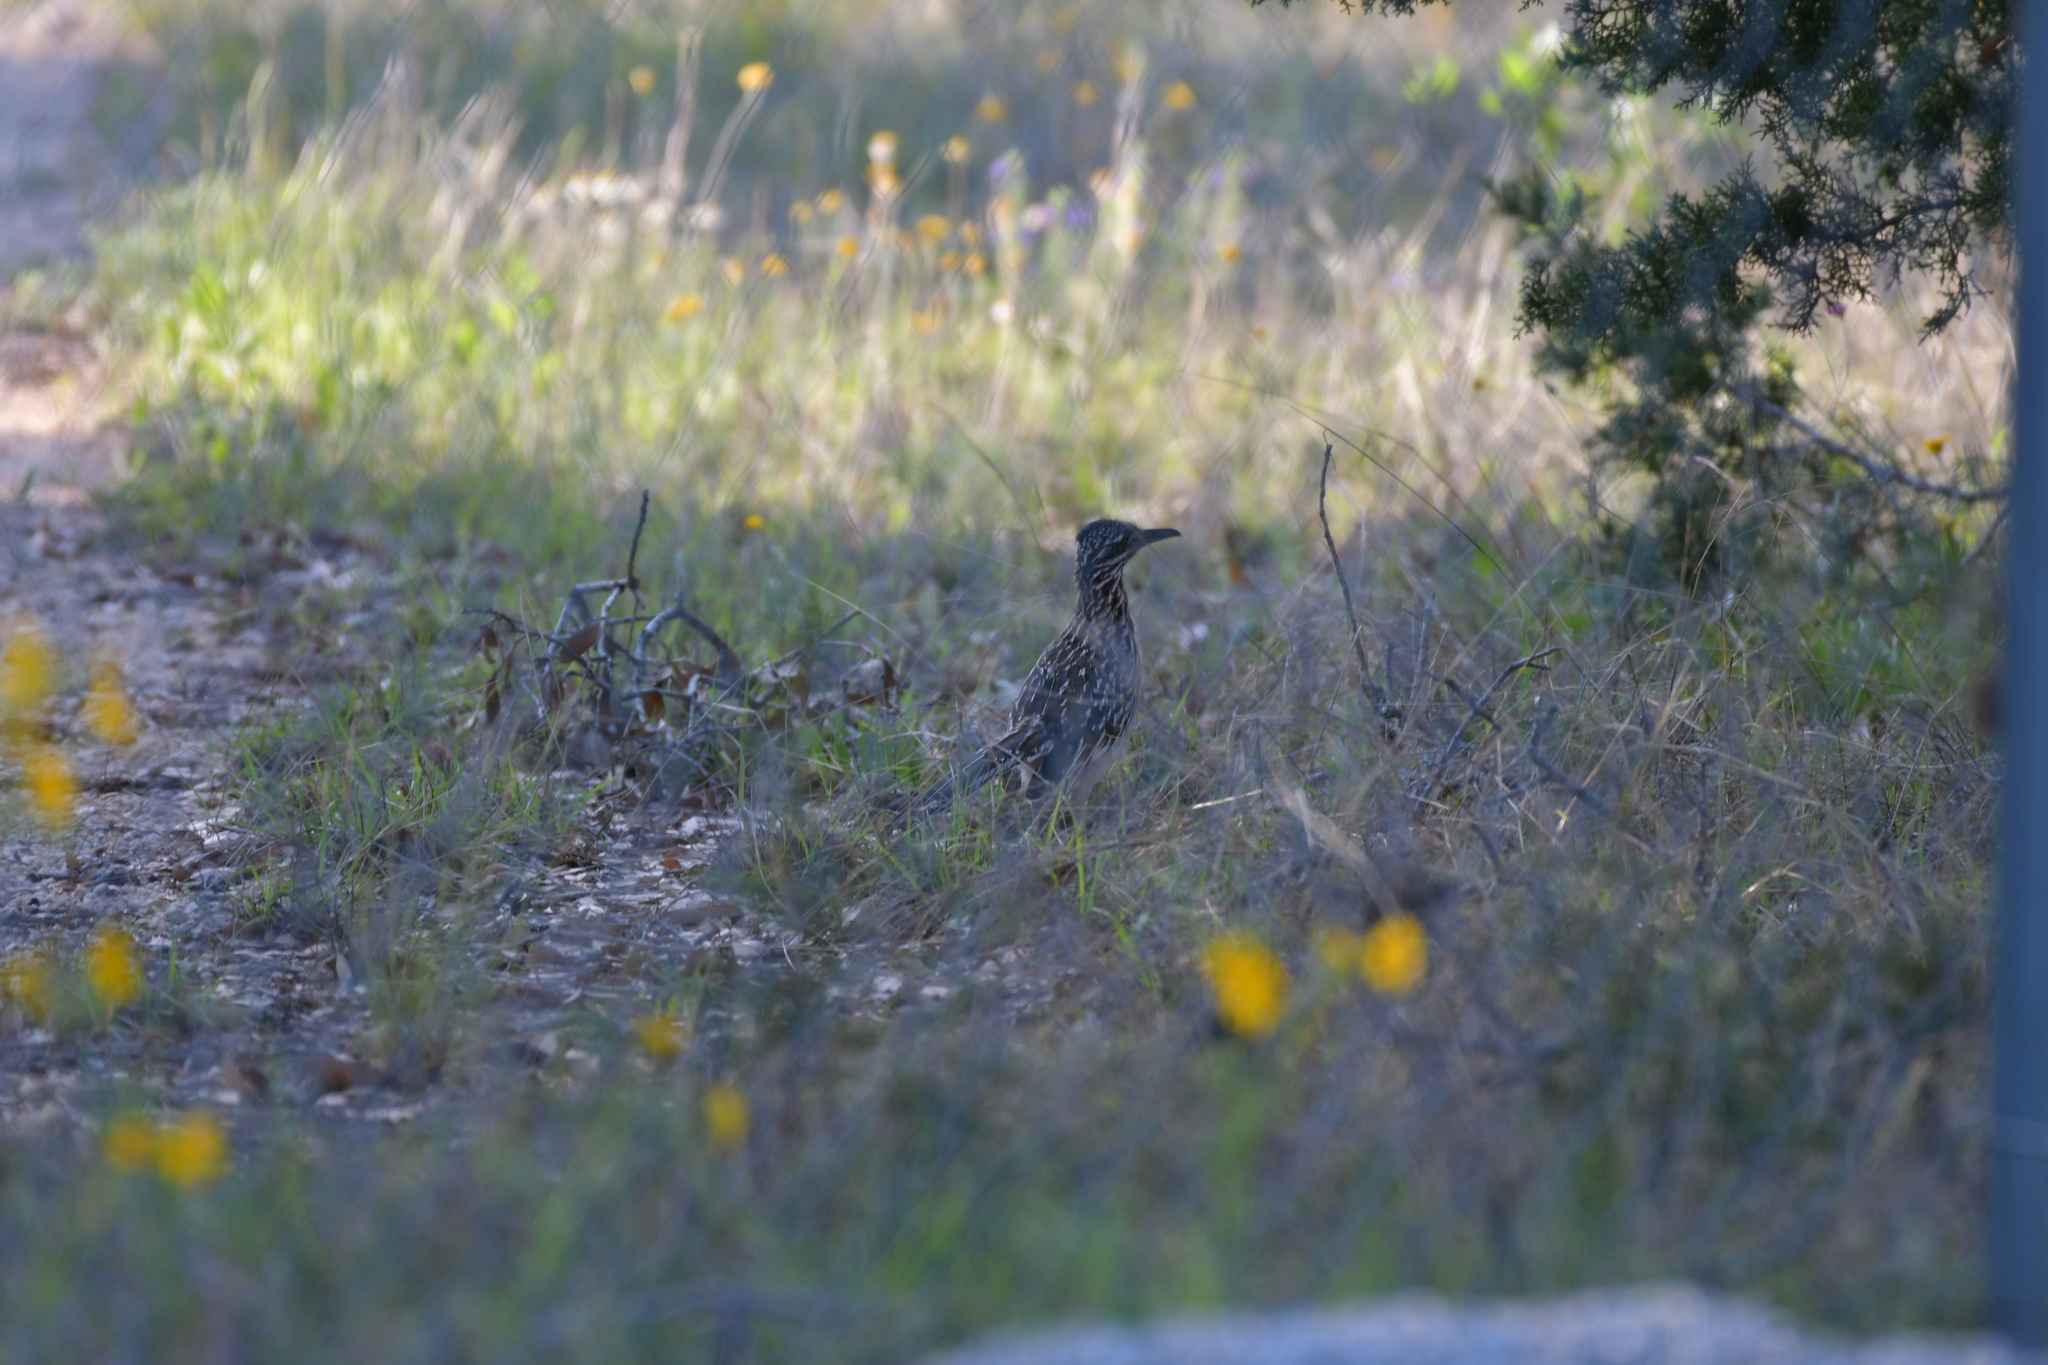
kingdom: Animalia
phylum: Chordata
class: Aves
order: Cuculiformes
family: Cuculidae
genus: Geococcyx
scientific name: Geococcyx californianus
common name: Greater roadrunner
